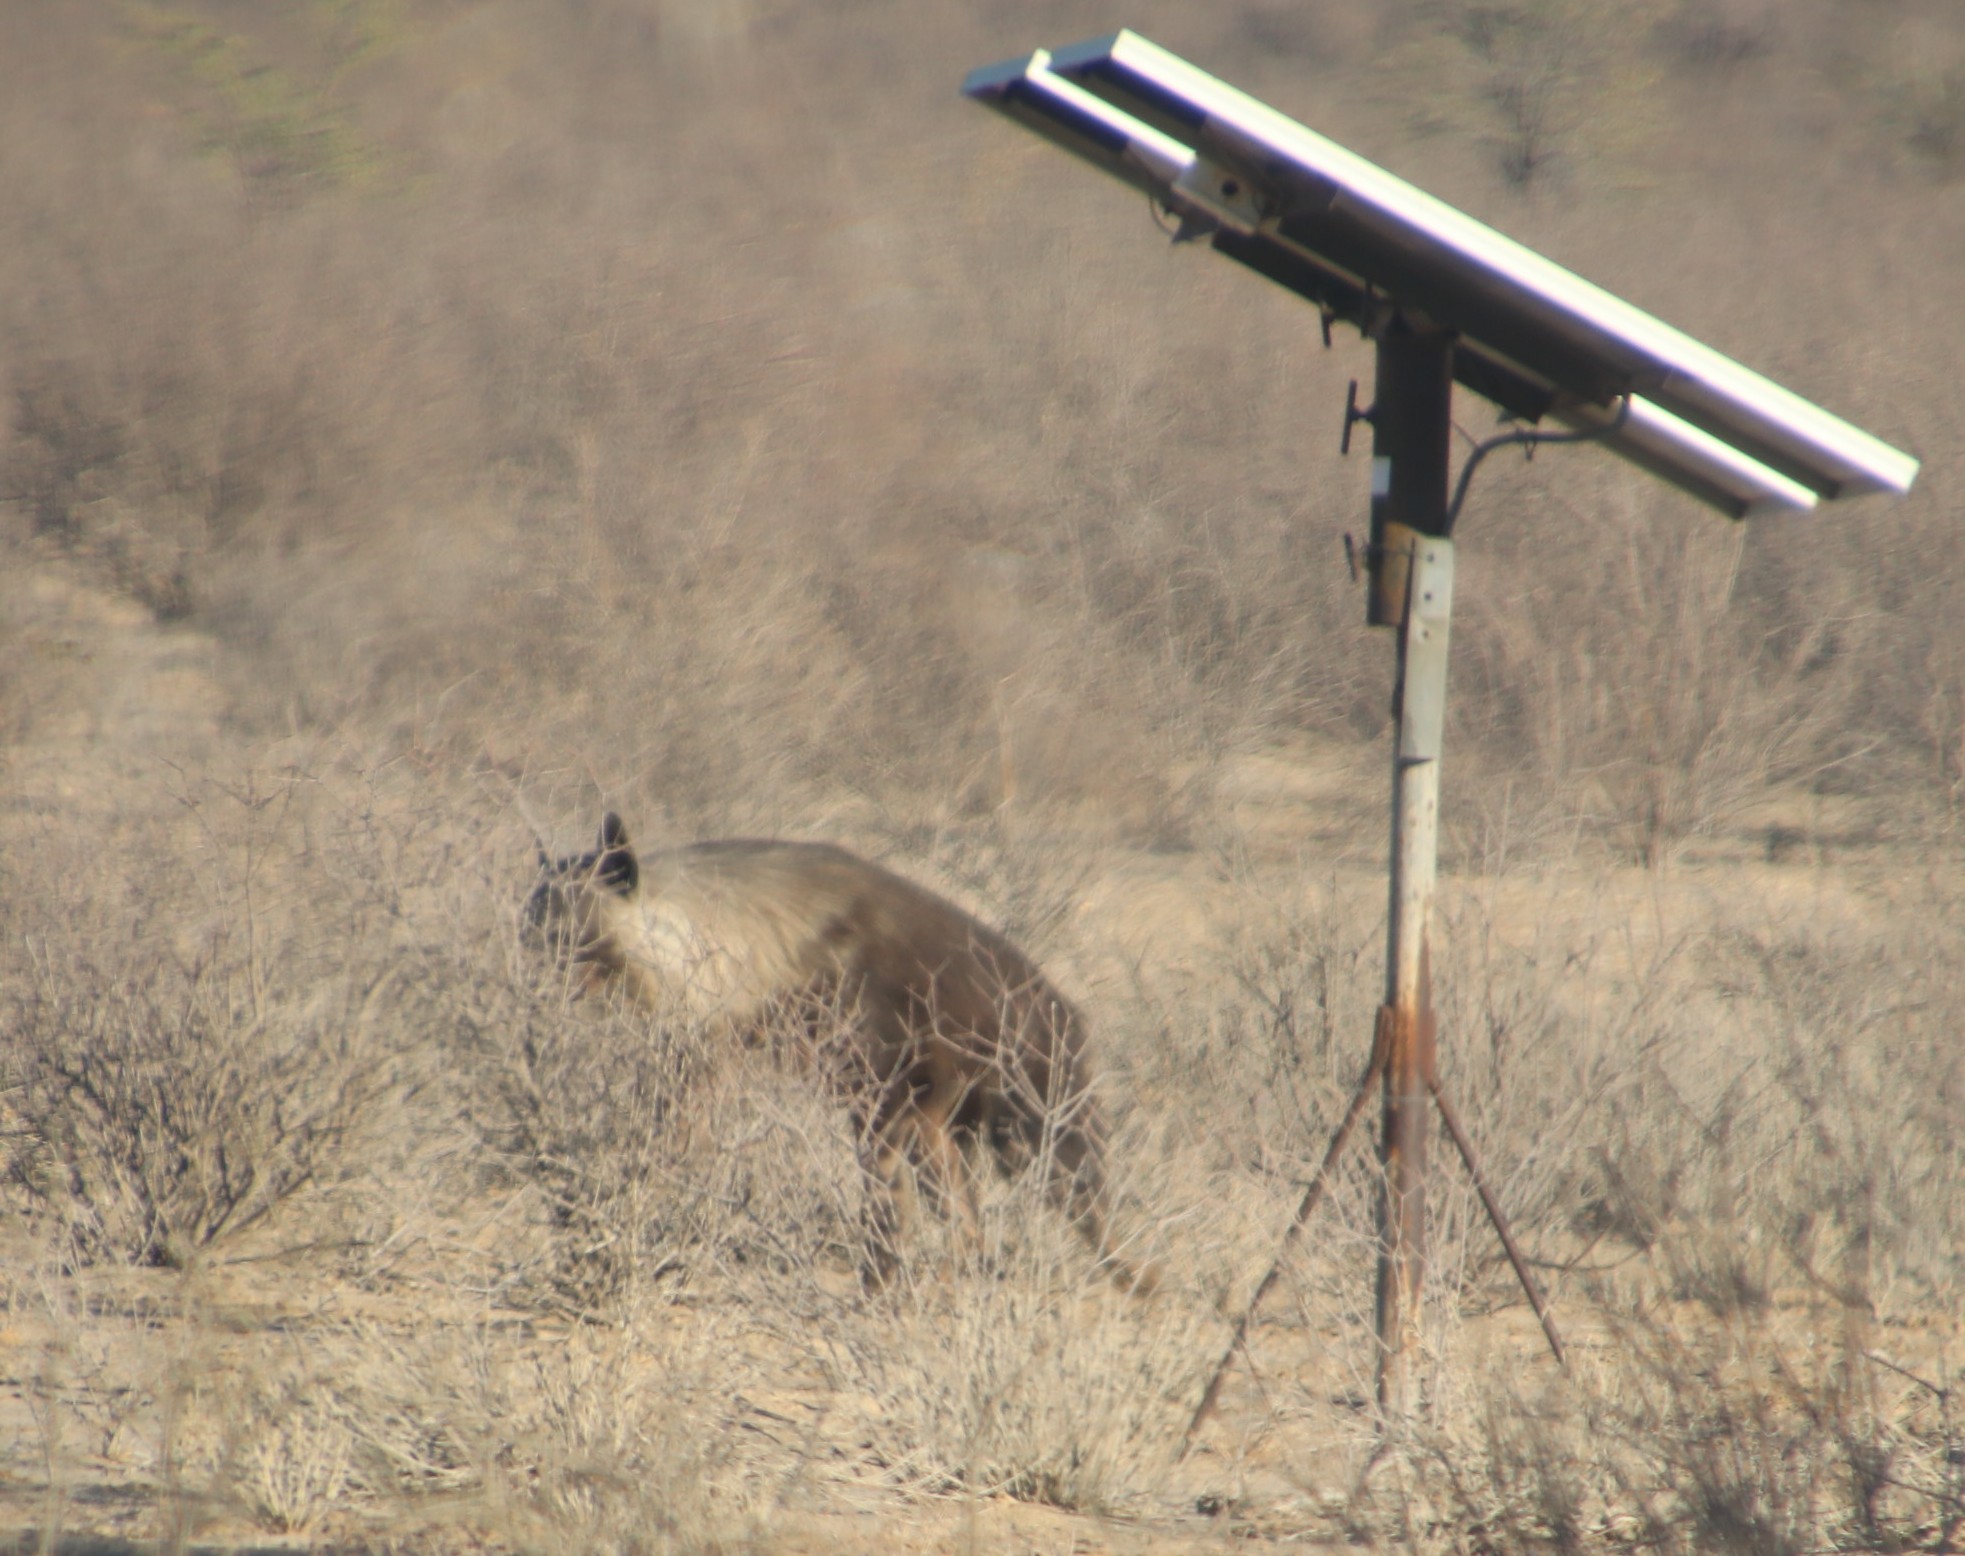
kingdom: Animalia
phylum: Chordata
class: Mammalia
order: Carnivora
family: Hyaenidae
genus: Hyaena
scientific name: Hyaena brunnea
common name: Brown hyena
